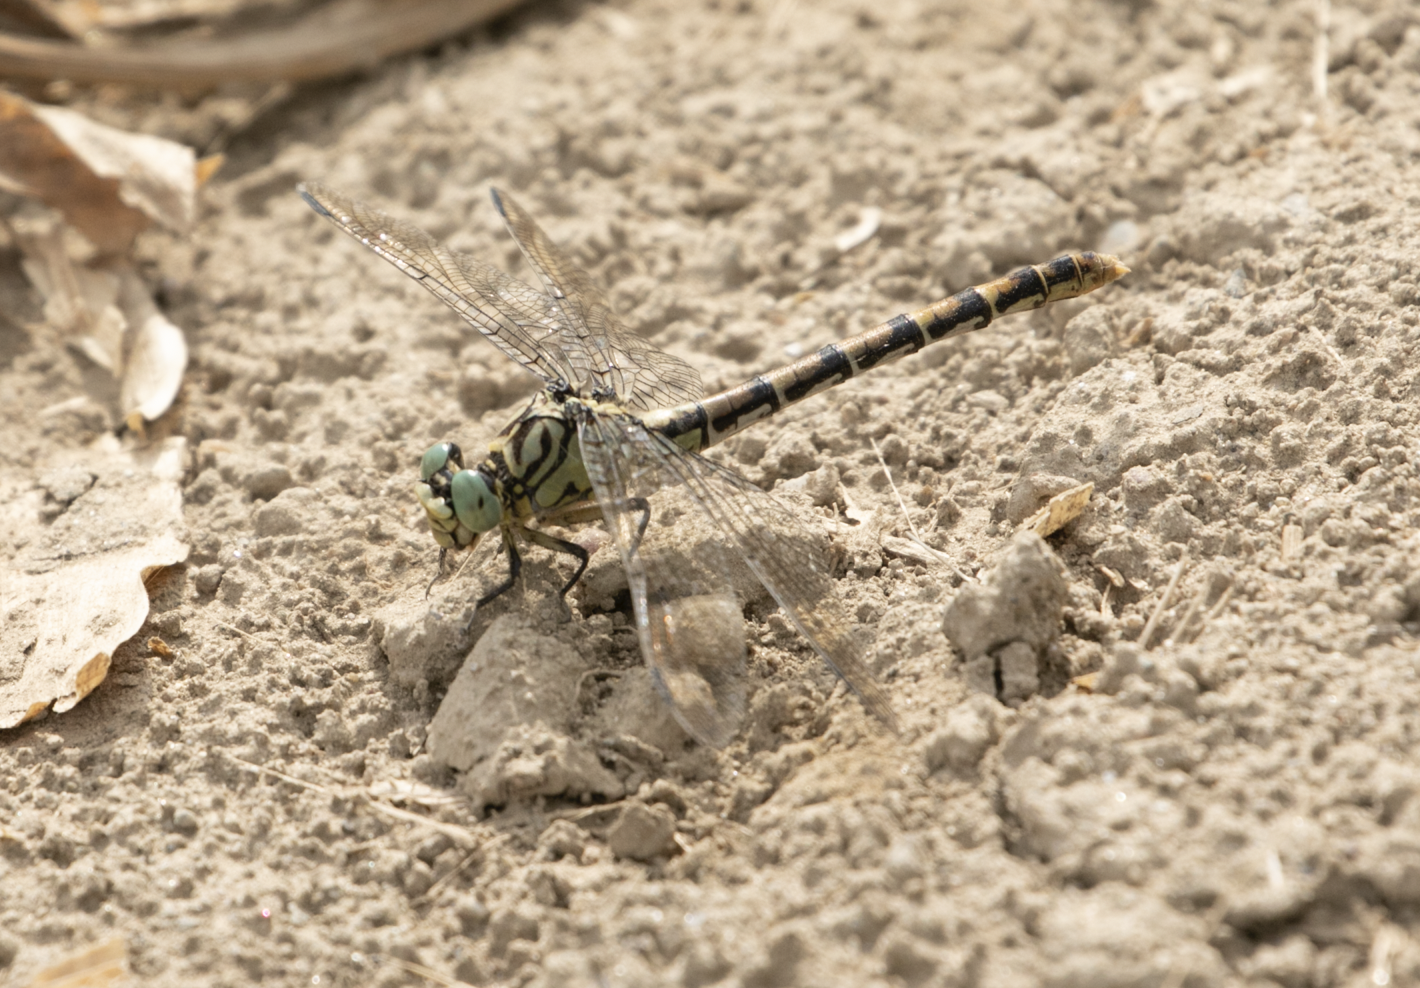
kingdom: Animalia
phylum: Arthropoda
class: Insecta
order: Odonata
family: Gomphidae
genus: Onychogomphus
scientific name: Onychogomphus forcipatus
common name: Small pincertail
